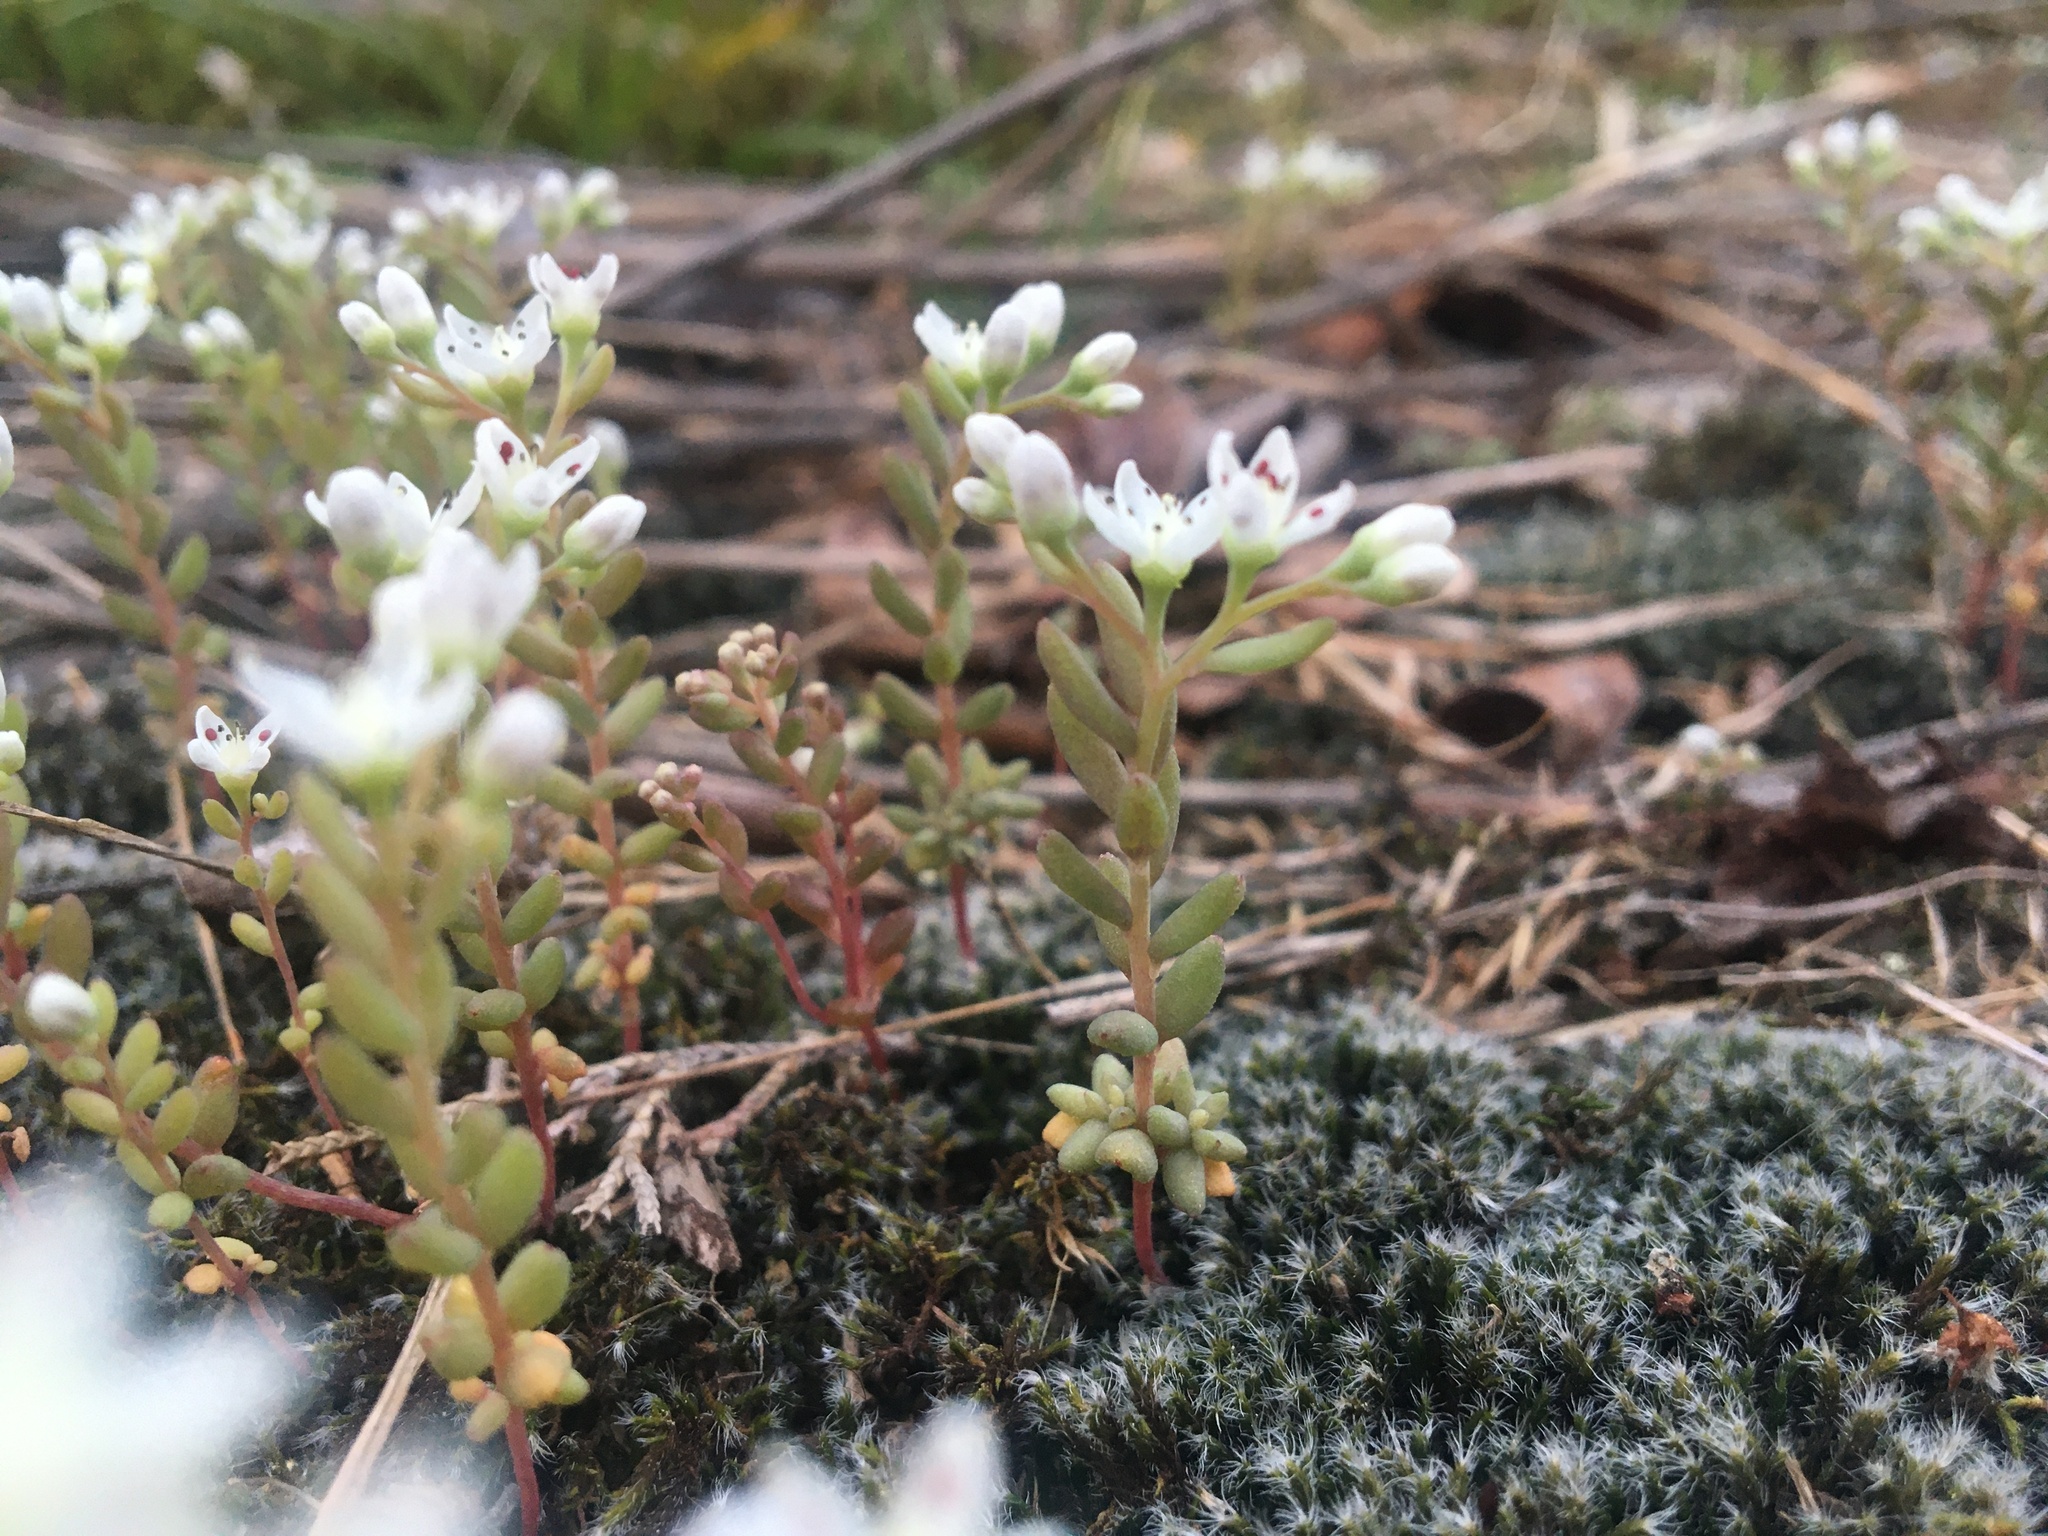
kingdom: Plantae
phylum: Tracheophyta
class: Magnoliopsida
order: Saxifragales
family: Crassulaceae
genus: Sedum
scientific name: Sedum smallii
